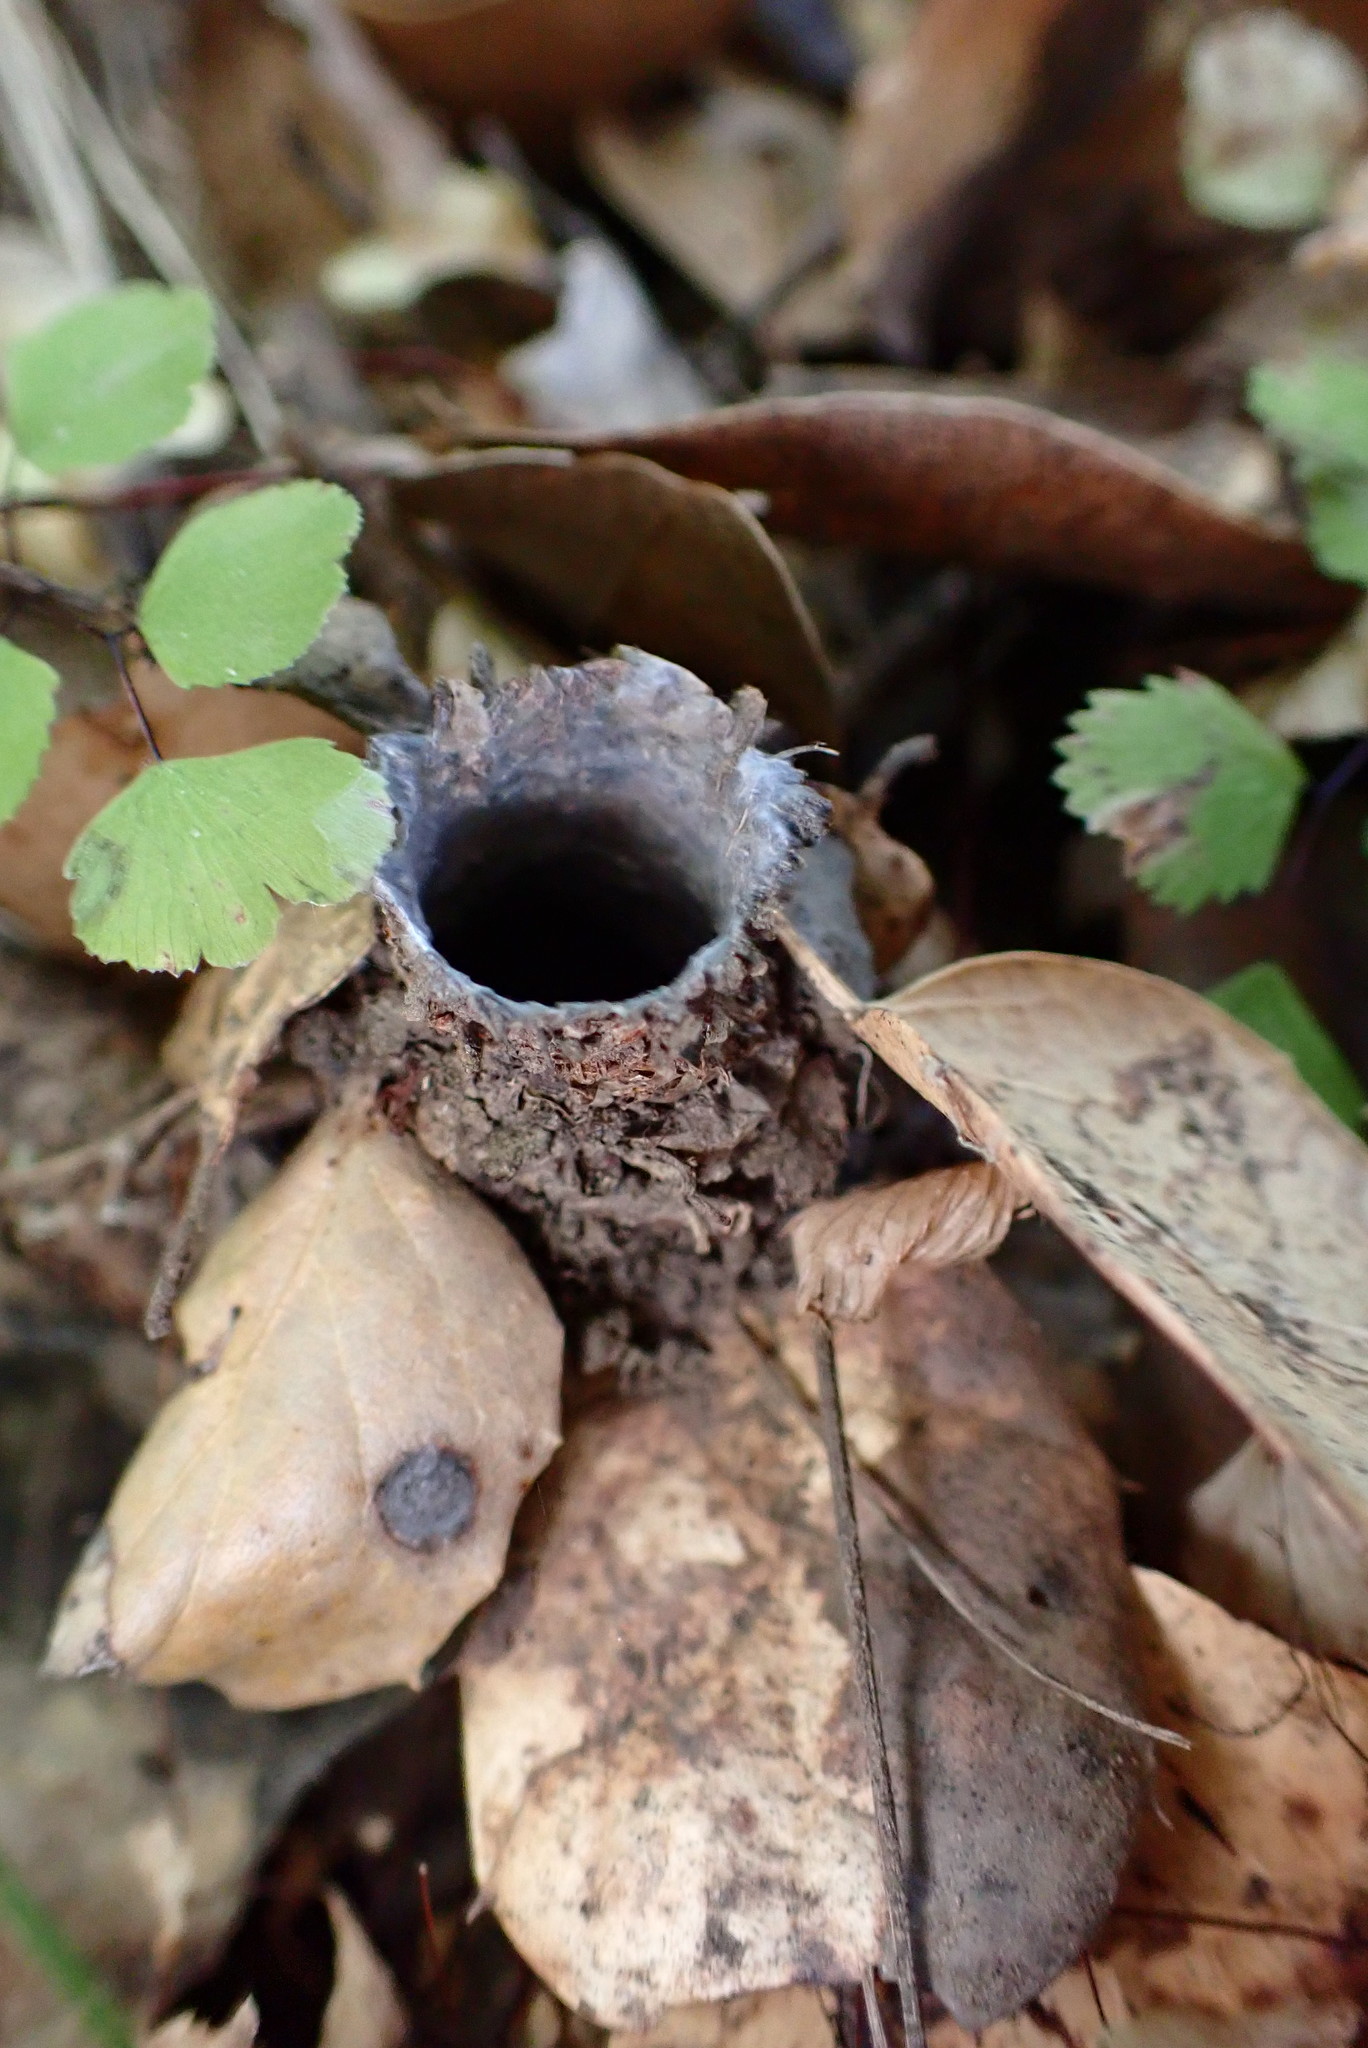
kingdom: Animalia
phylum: Arthropoda
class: Arachnida
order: Araneae
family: Antrodiaetidae
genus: Atypoides
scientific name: Atypoides riversi
